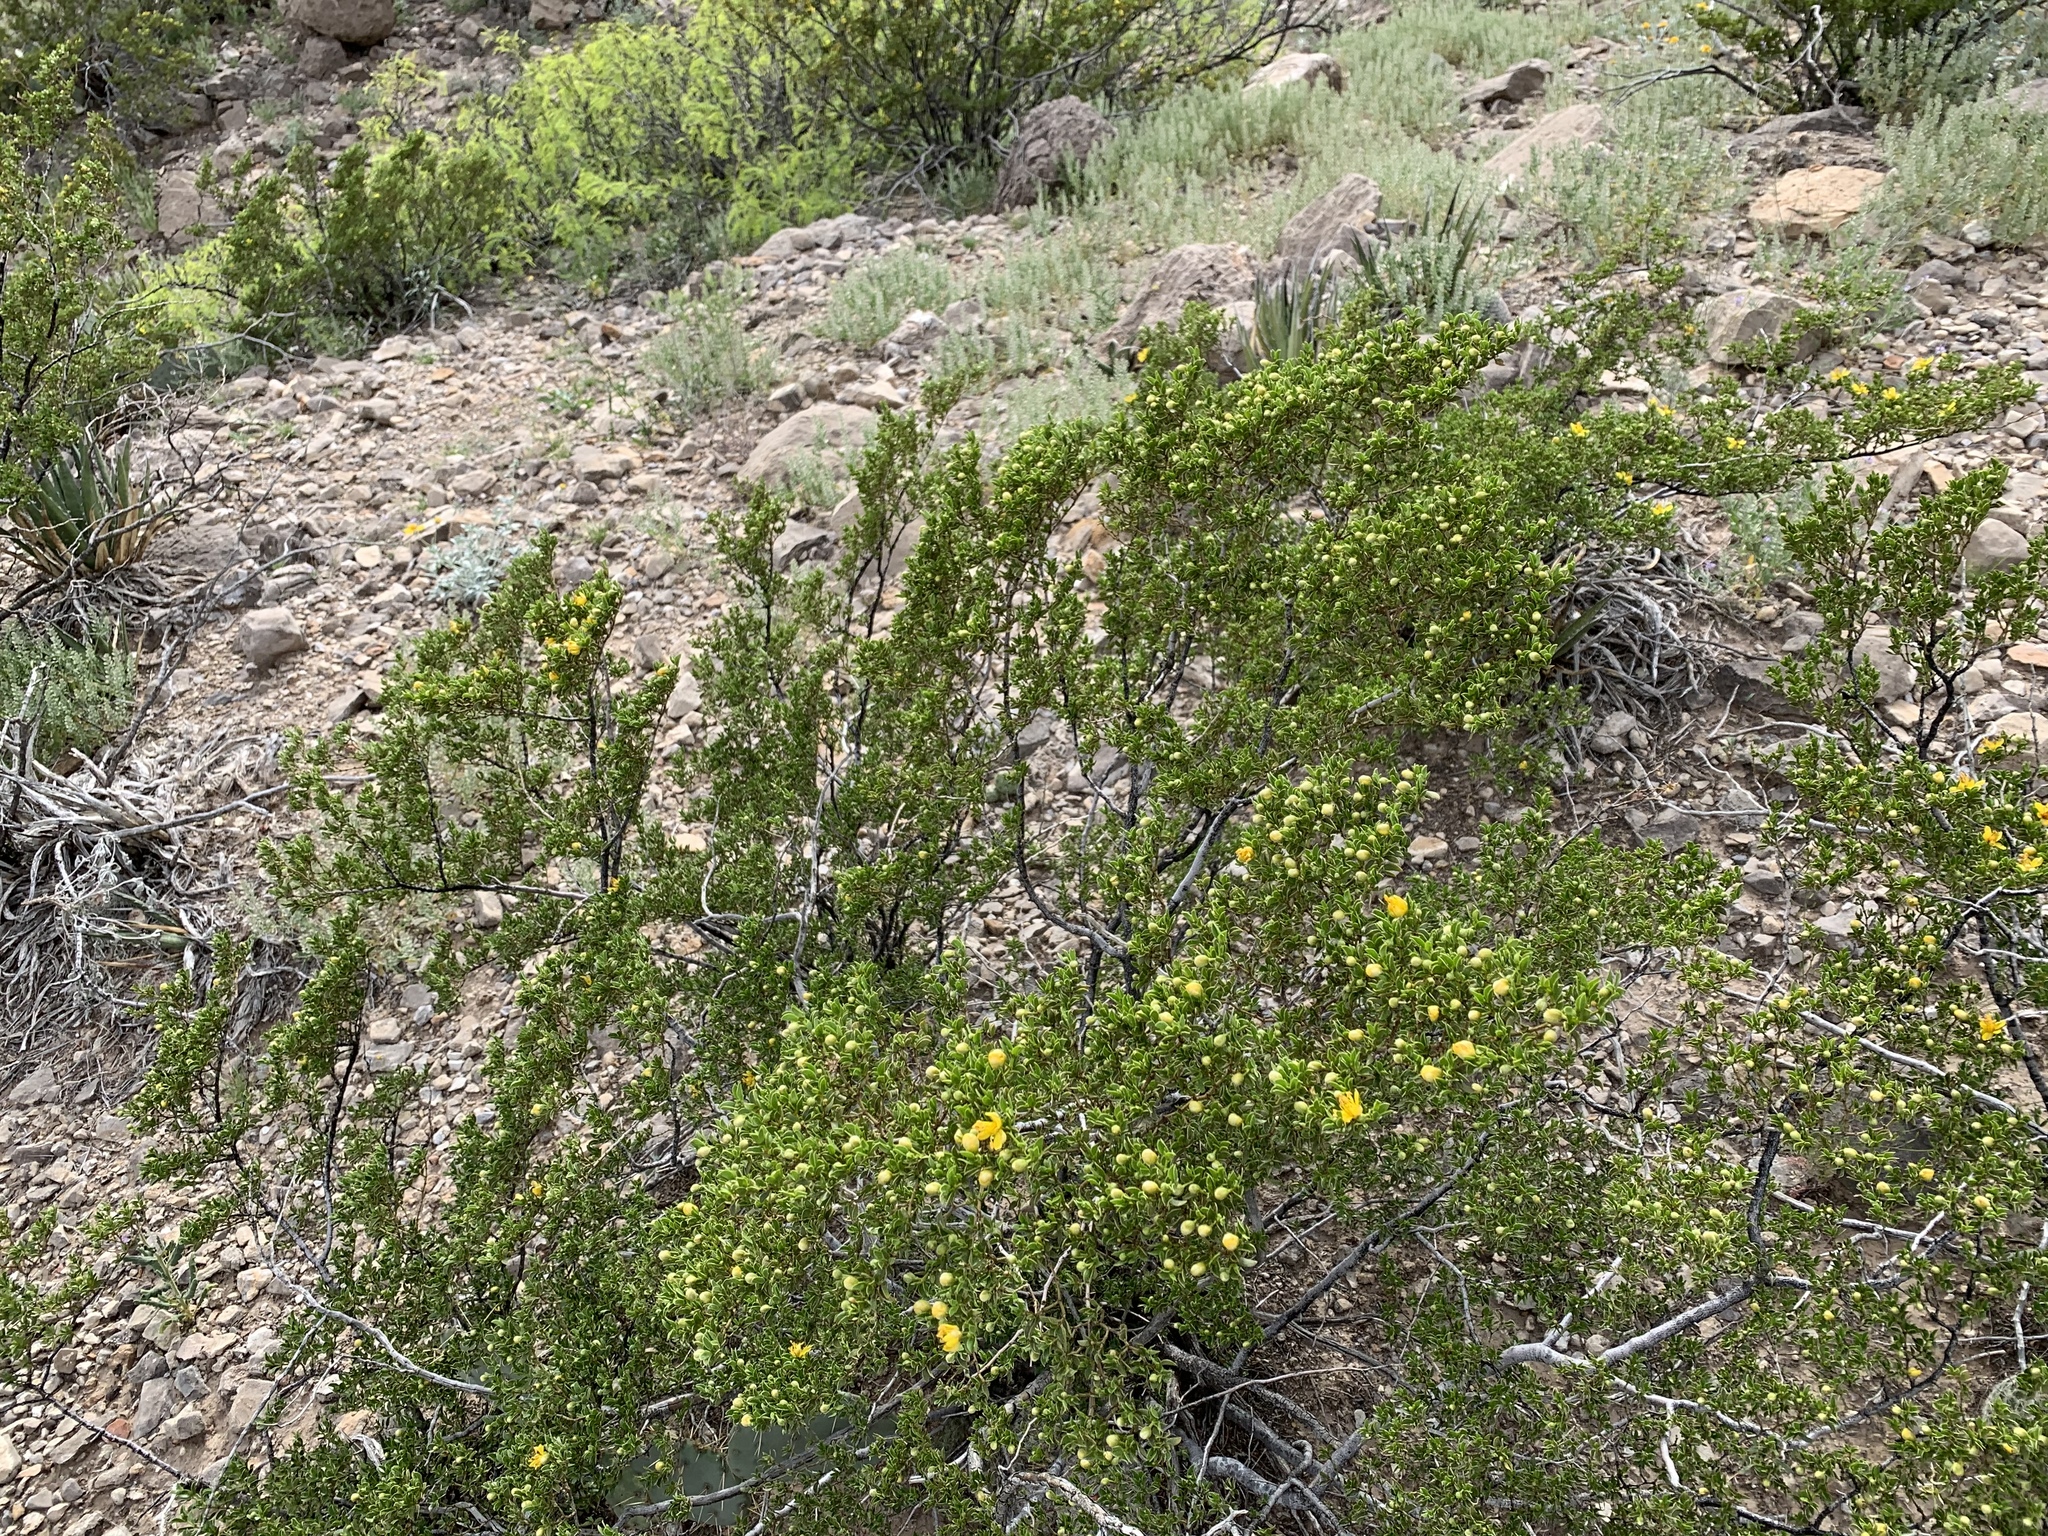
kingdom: Plantae
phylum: Tracheophyta
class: Magnoliopsida
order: Zygophyllales
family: Zygophyllaceae
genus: Larrea
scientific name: Larrea tridentata
